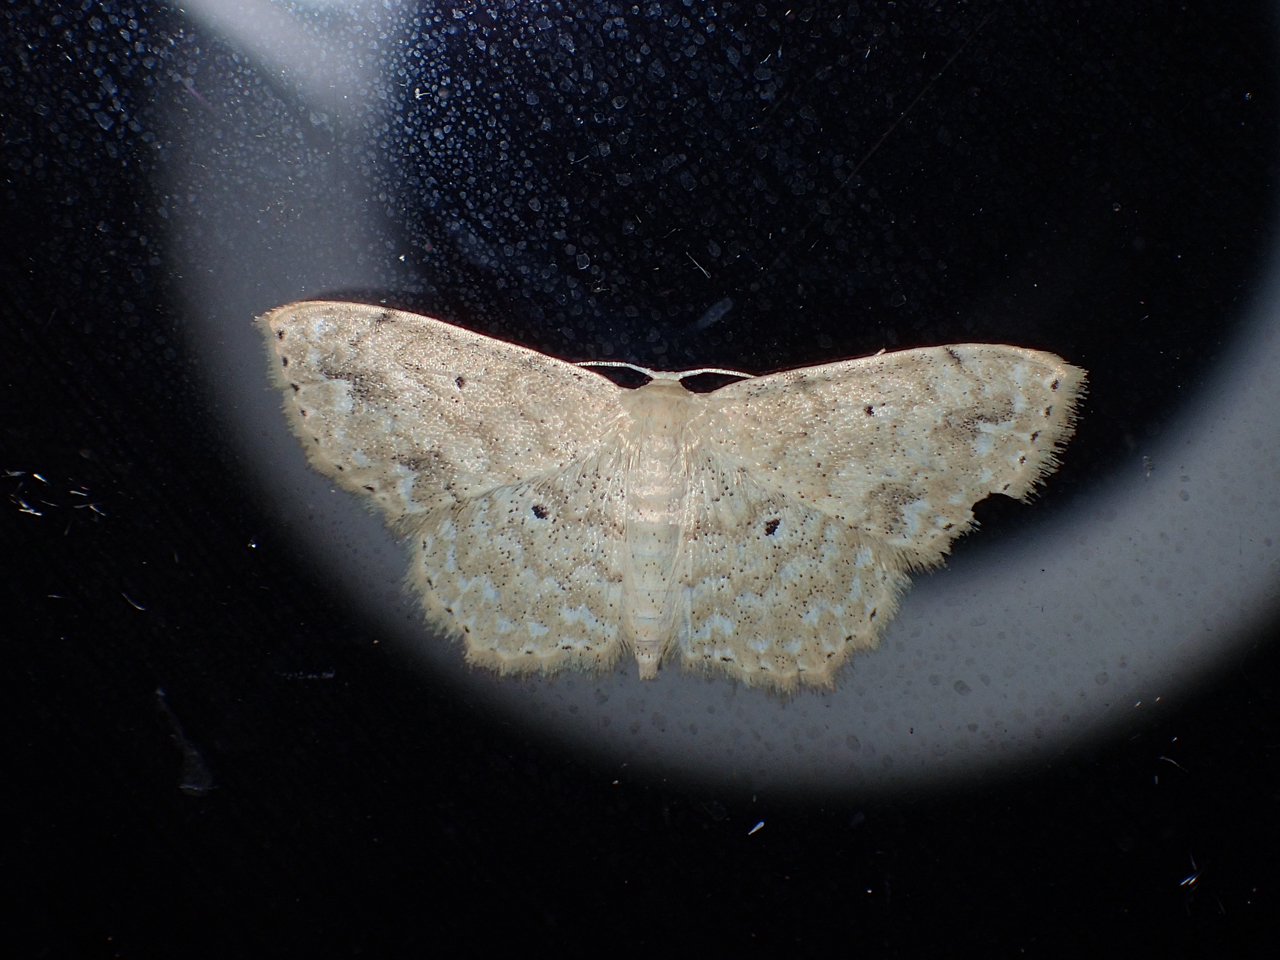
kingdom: Animalia
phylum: Arthropoda
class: Insecta
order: Lepidoptera
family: Geometridae
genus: Scopula
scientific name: Scopula compensata
